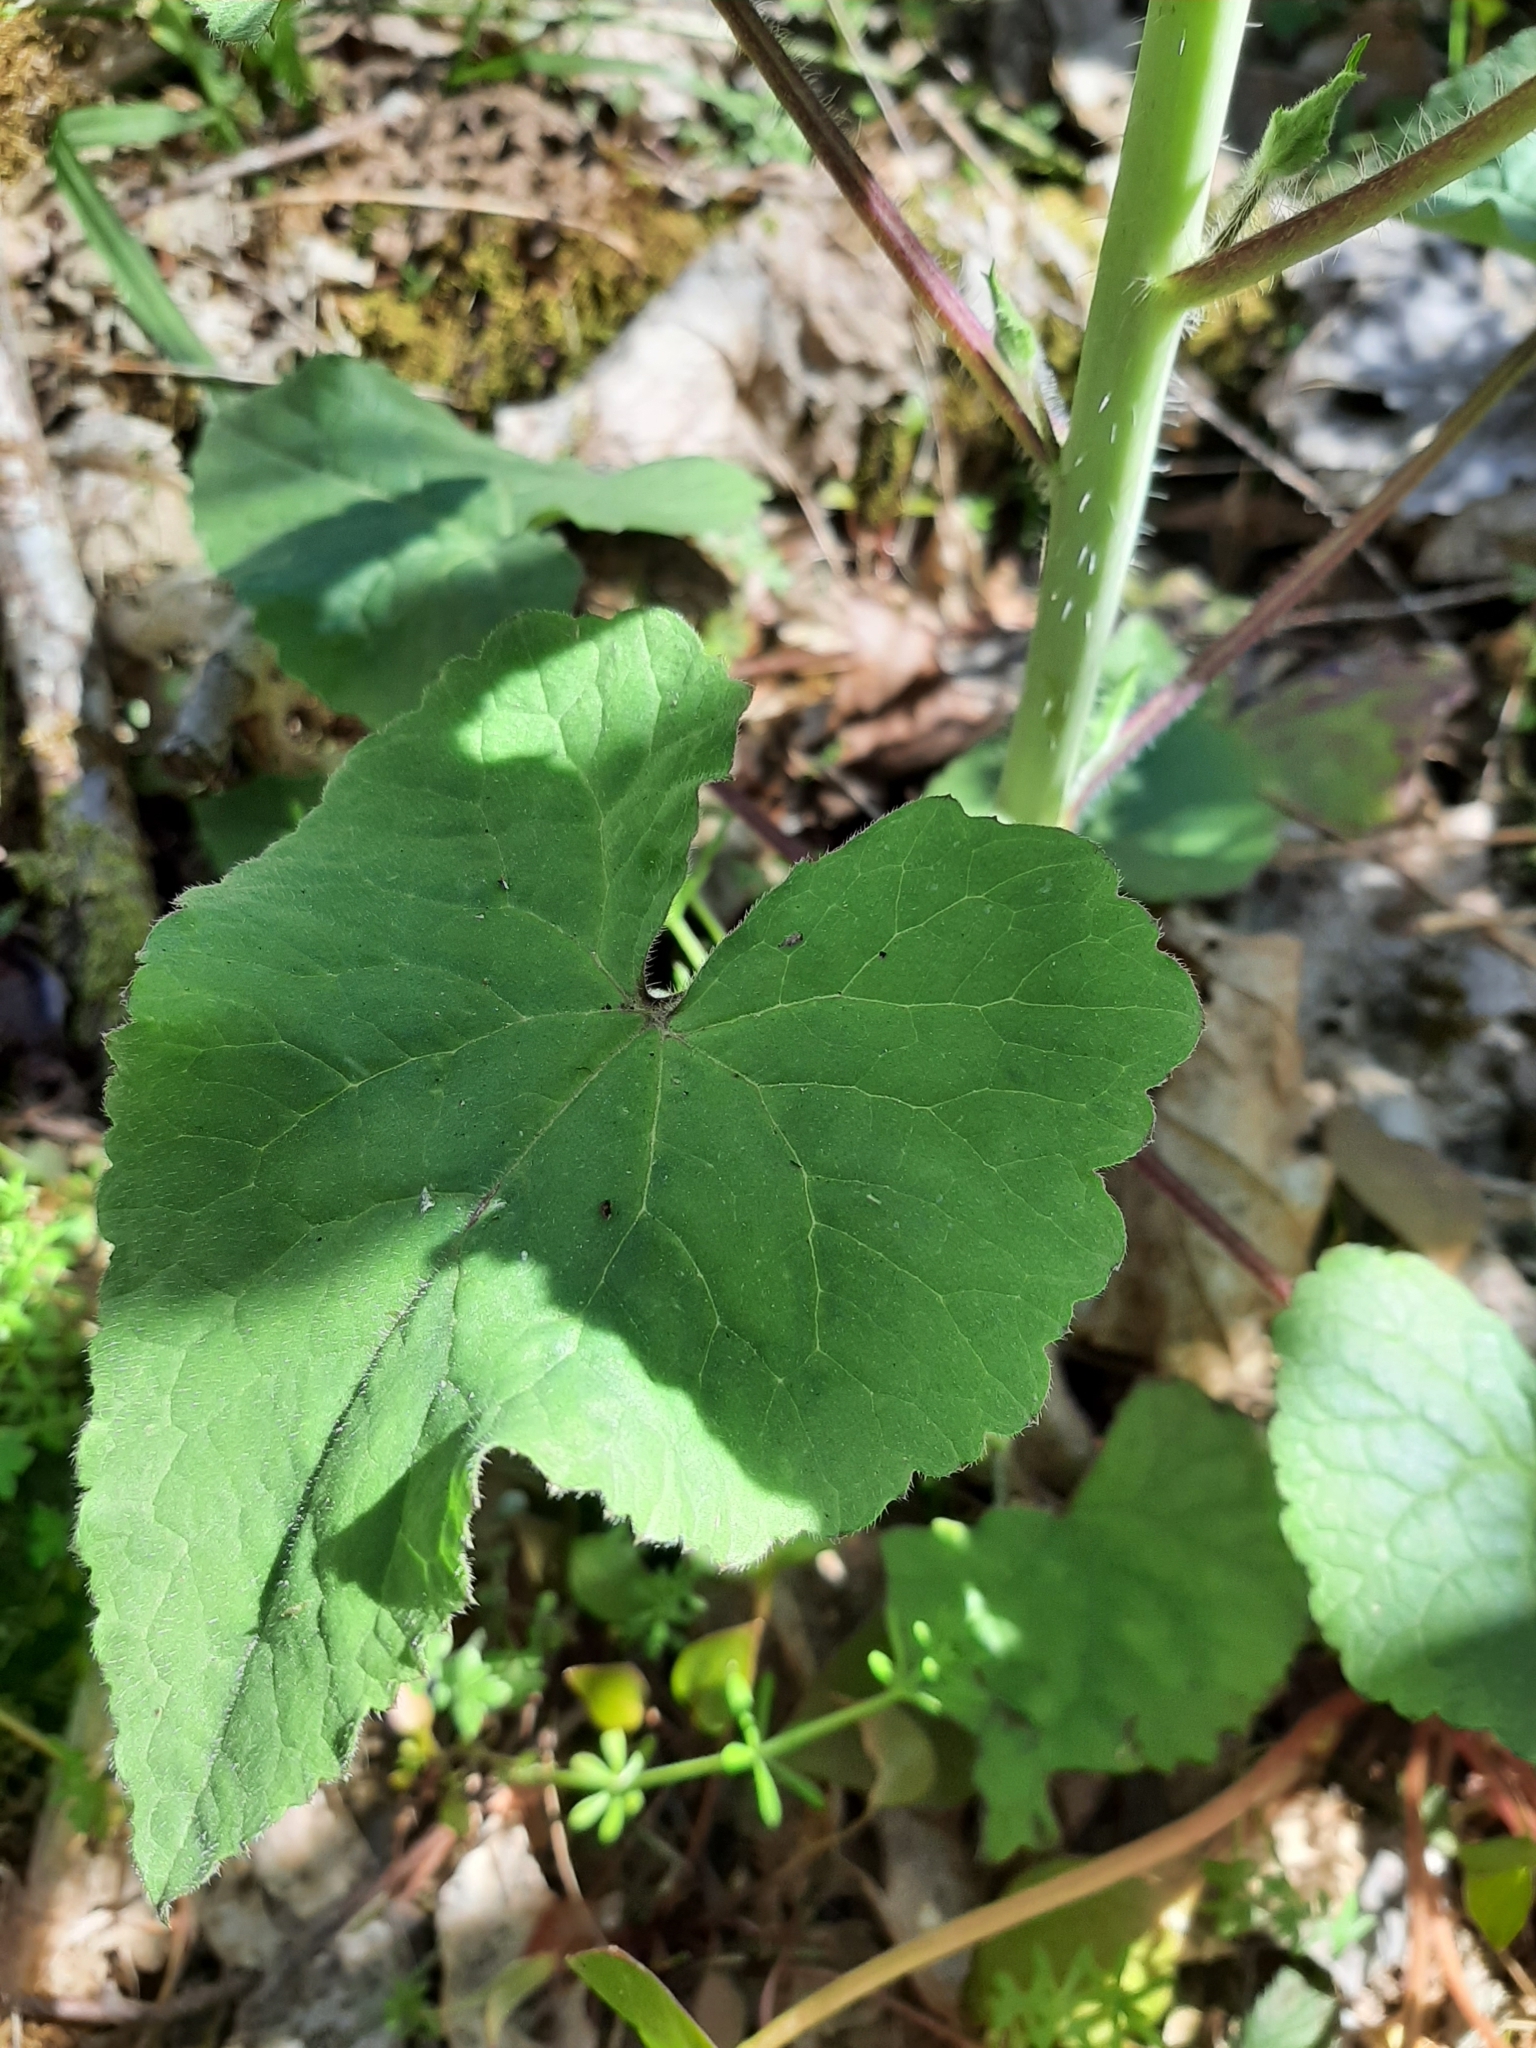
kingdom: Plantae
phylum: Tracheophyta
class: Magnoliopsida
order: Brassicales
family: Brassicaceae
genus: Lunaria
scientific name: Lunaria annua
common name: Honesty
